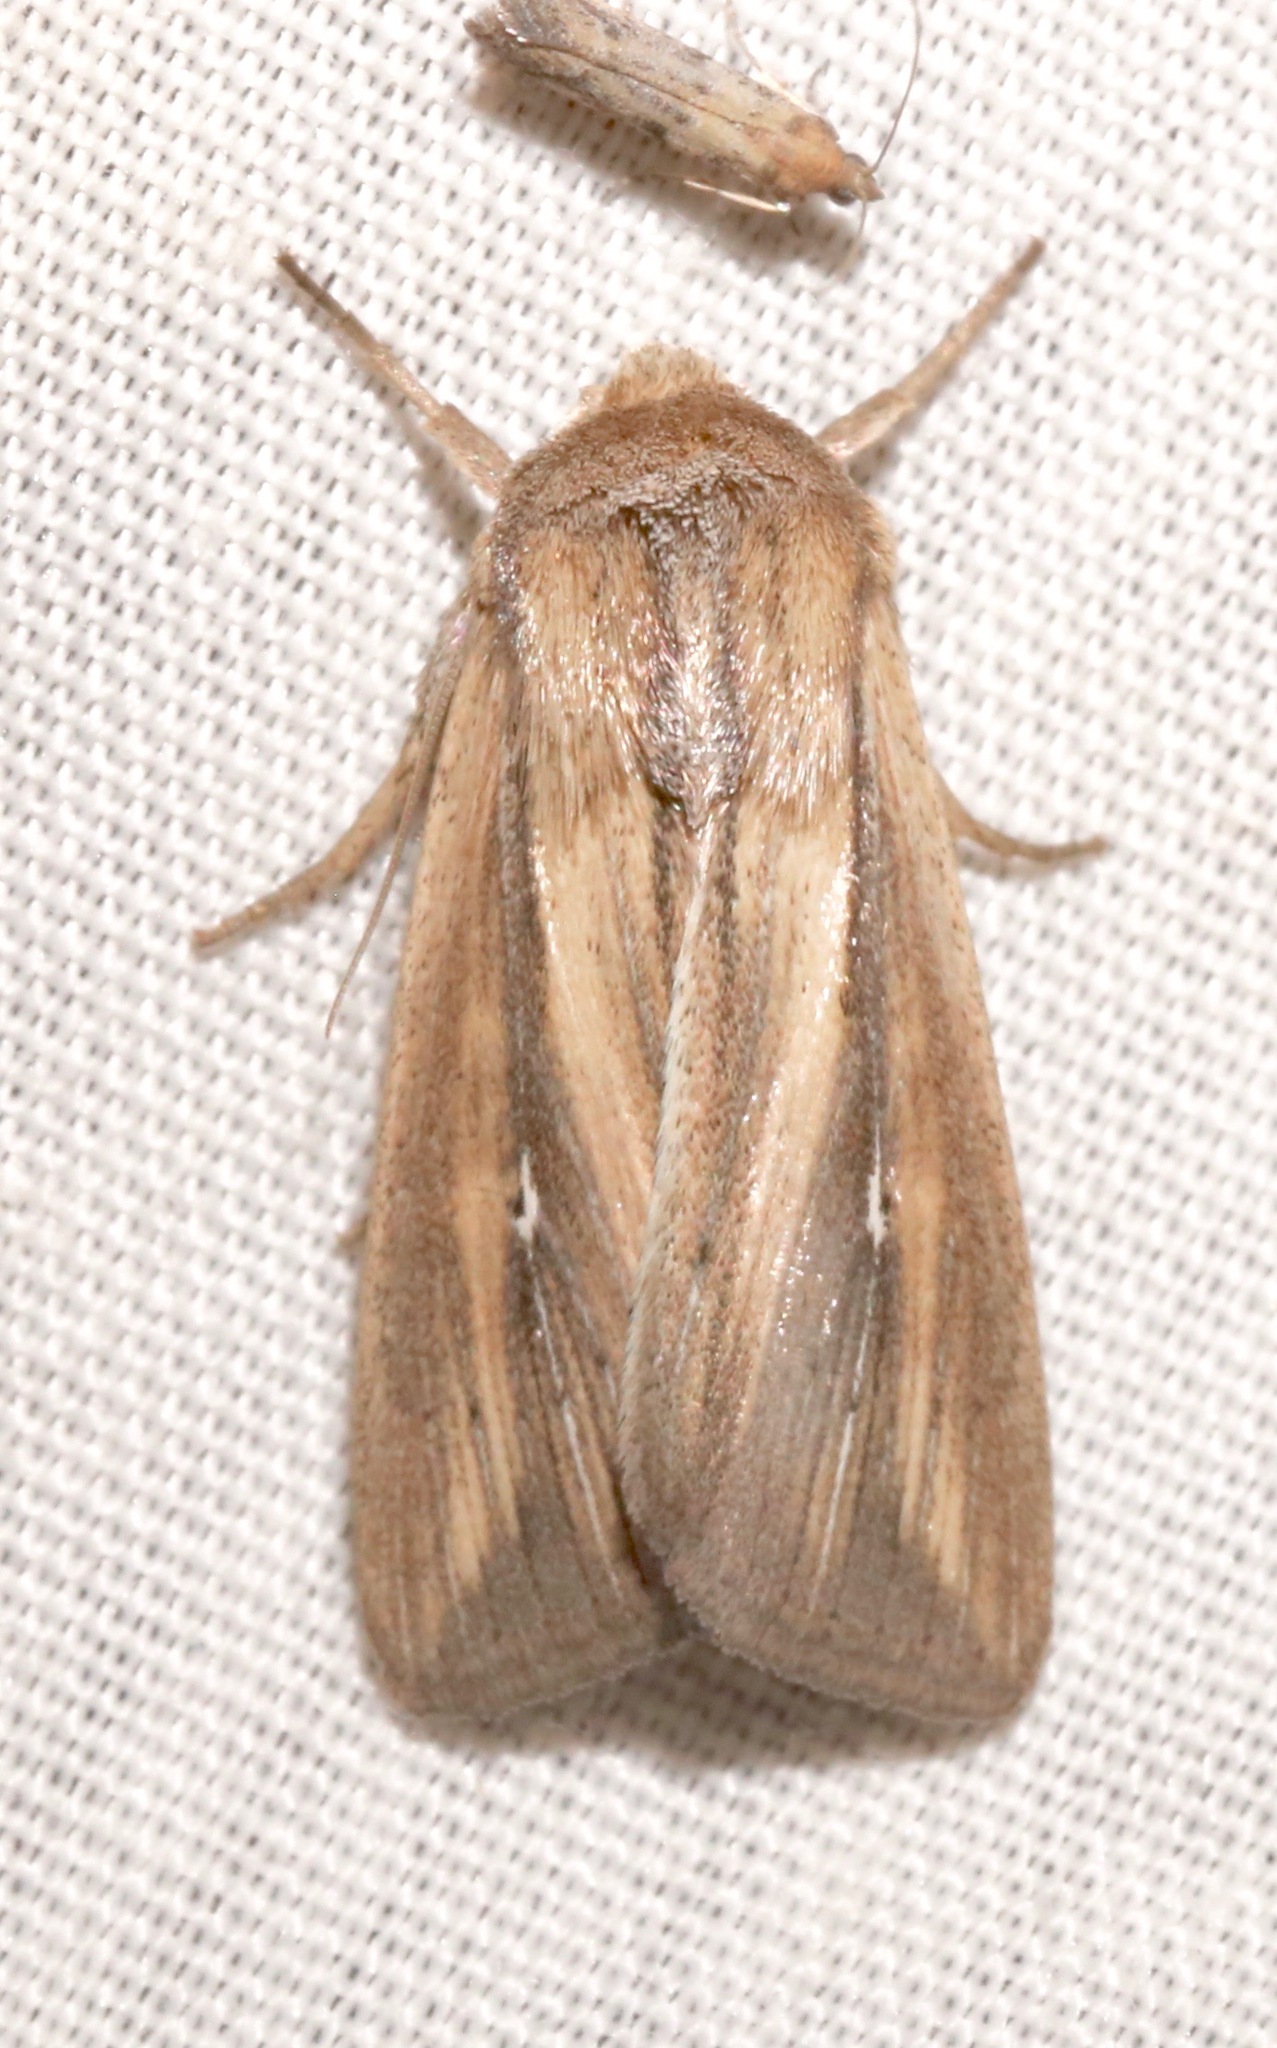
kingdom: Animalia
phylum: Arthropoda
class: Insecta
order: Lepidoptera
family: Noctuidae
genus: Leucania
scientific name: Leucania imperfecta
